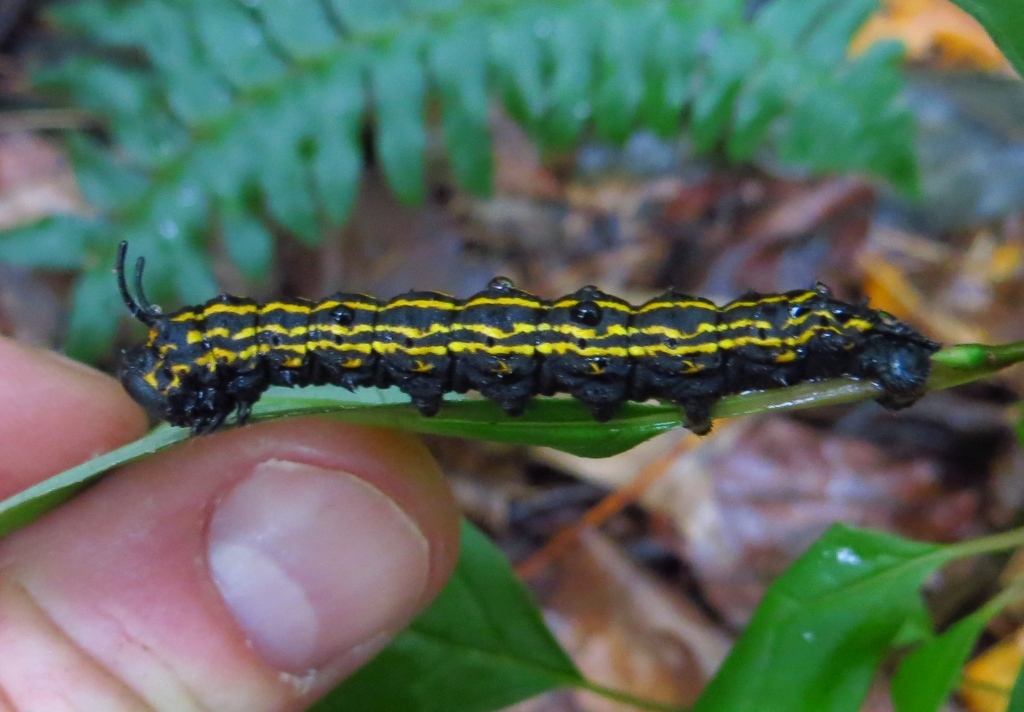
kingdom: Animalia
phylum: Arthropoda
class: Insecta
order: Lepidoptera
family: Saturniidae
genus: Anisota
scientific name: Anisota senatoria
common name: Orange-striped oakworm moth
